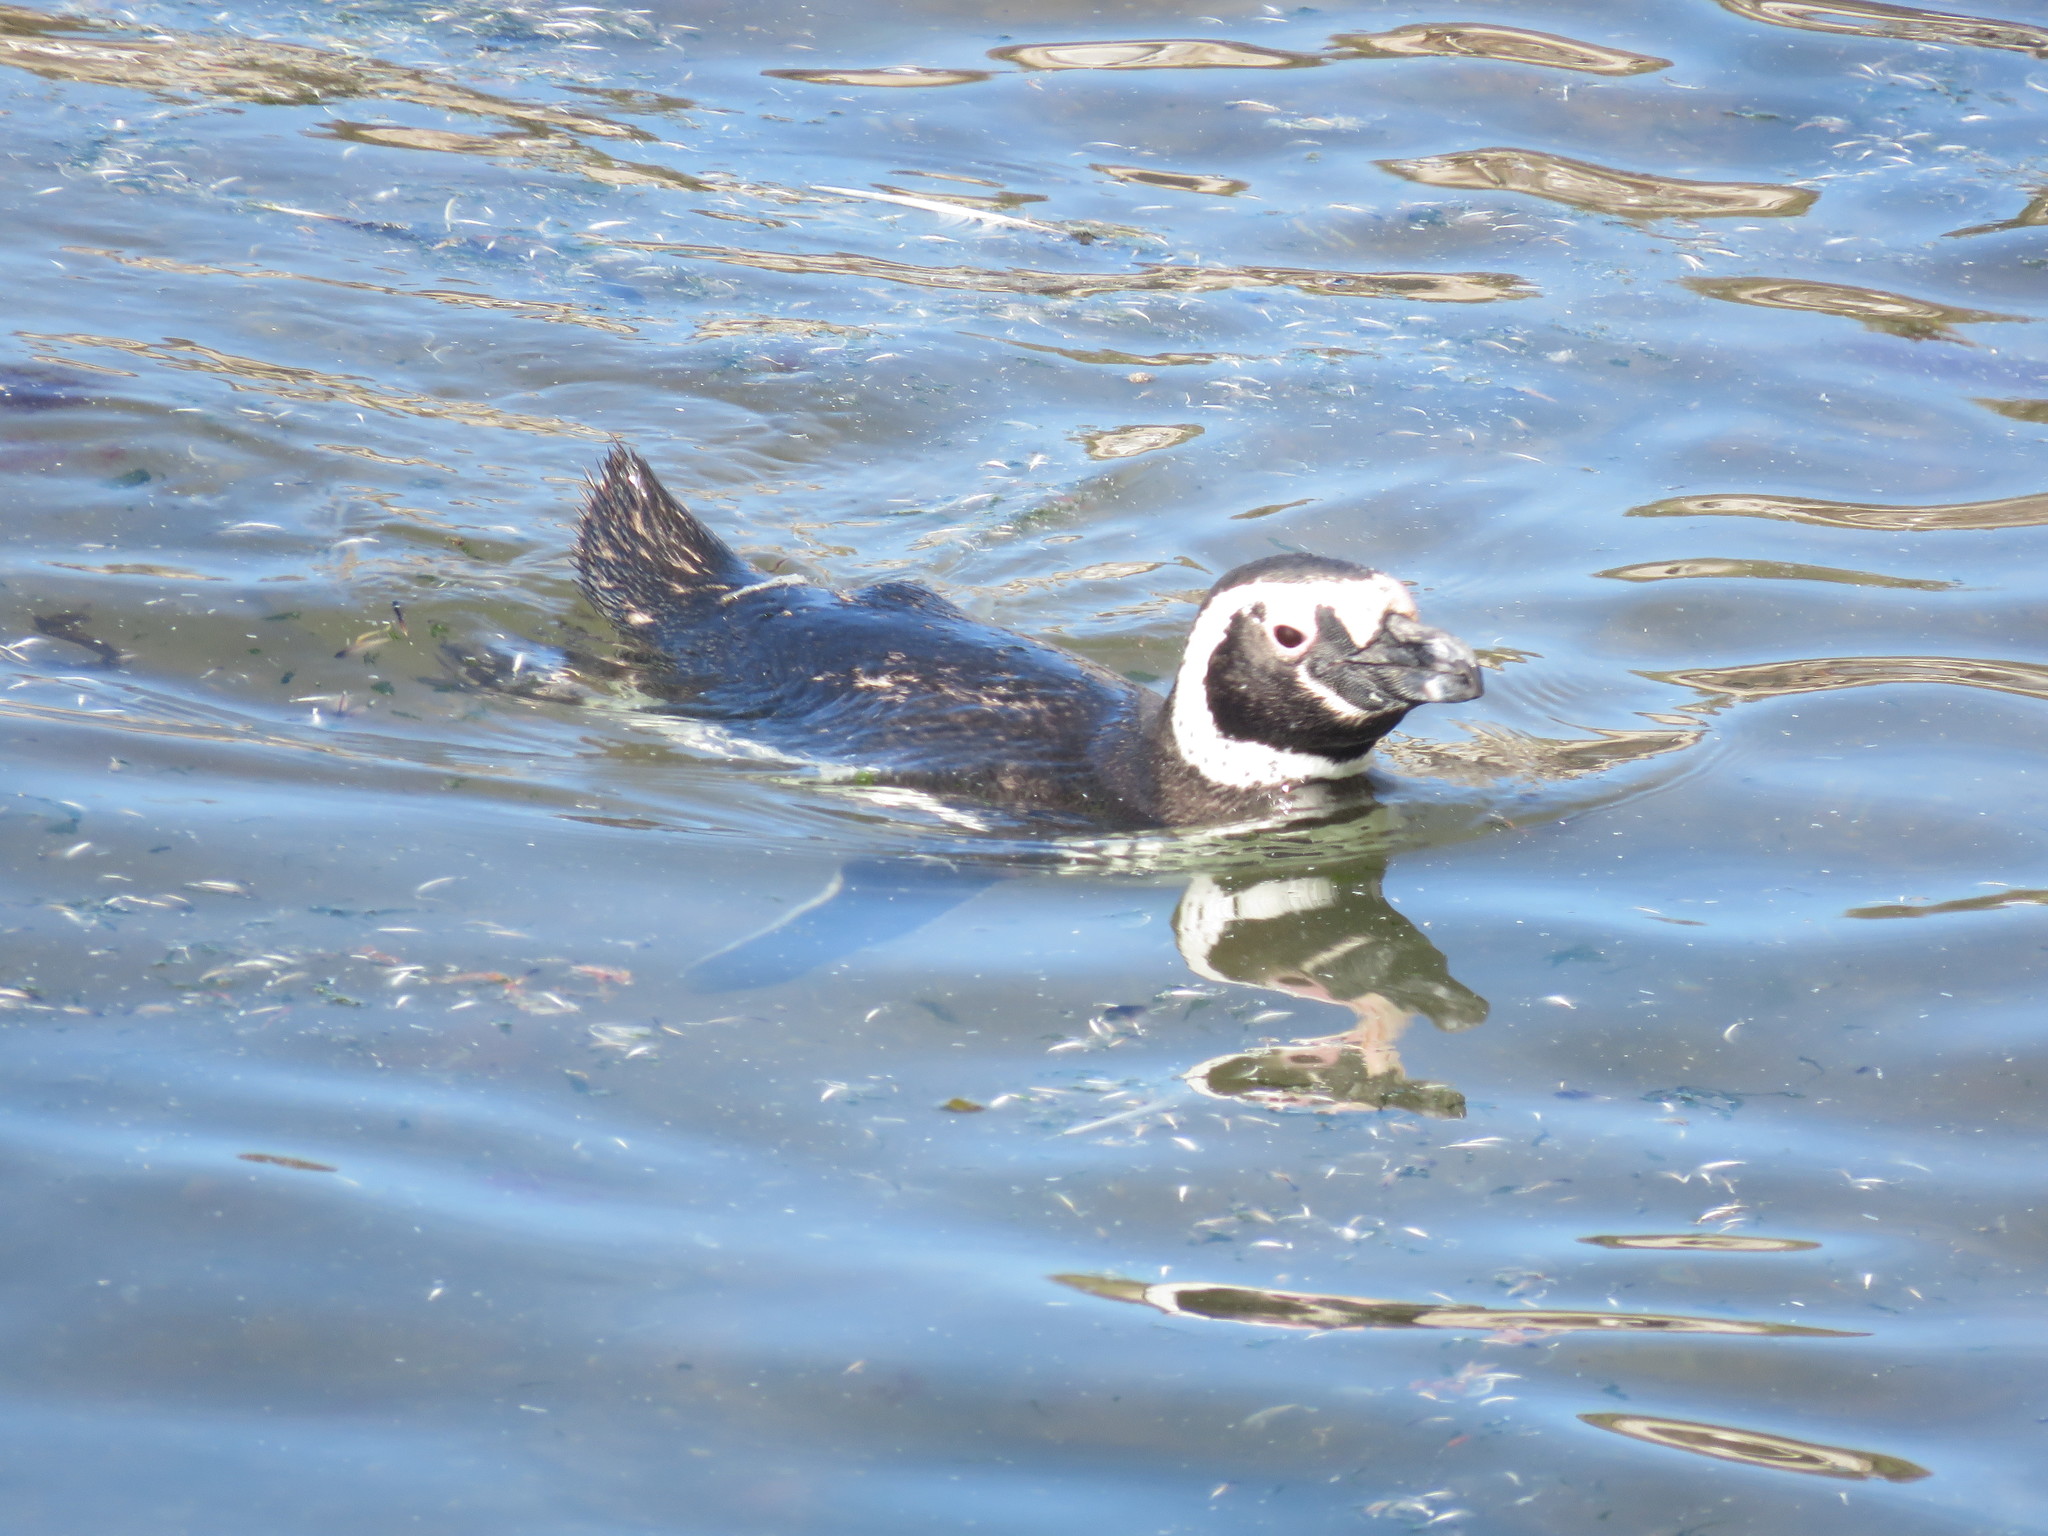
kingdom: Animalia
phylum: Chordata
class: Aves
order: Sphenisciformes
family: Spheniscidae
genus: Spheniscus
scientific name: Spheniscus magellanicus
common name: Magellanic penguin
